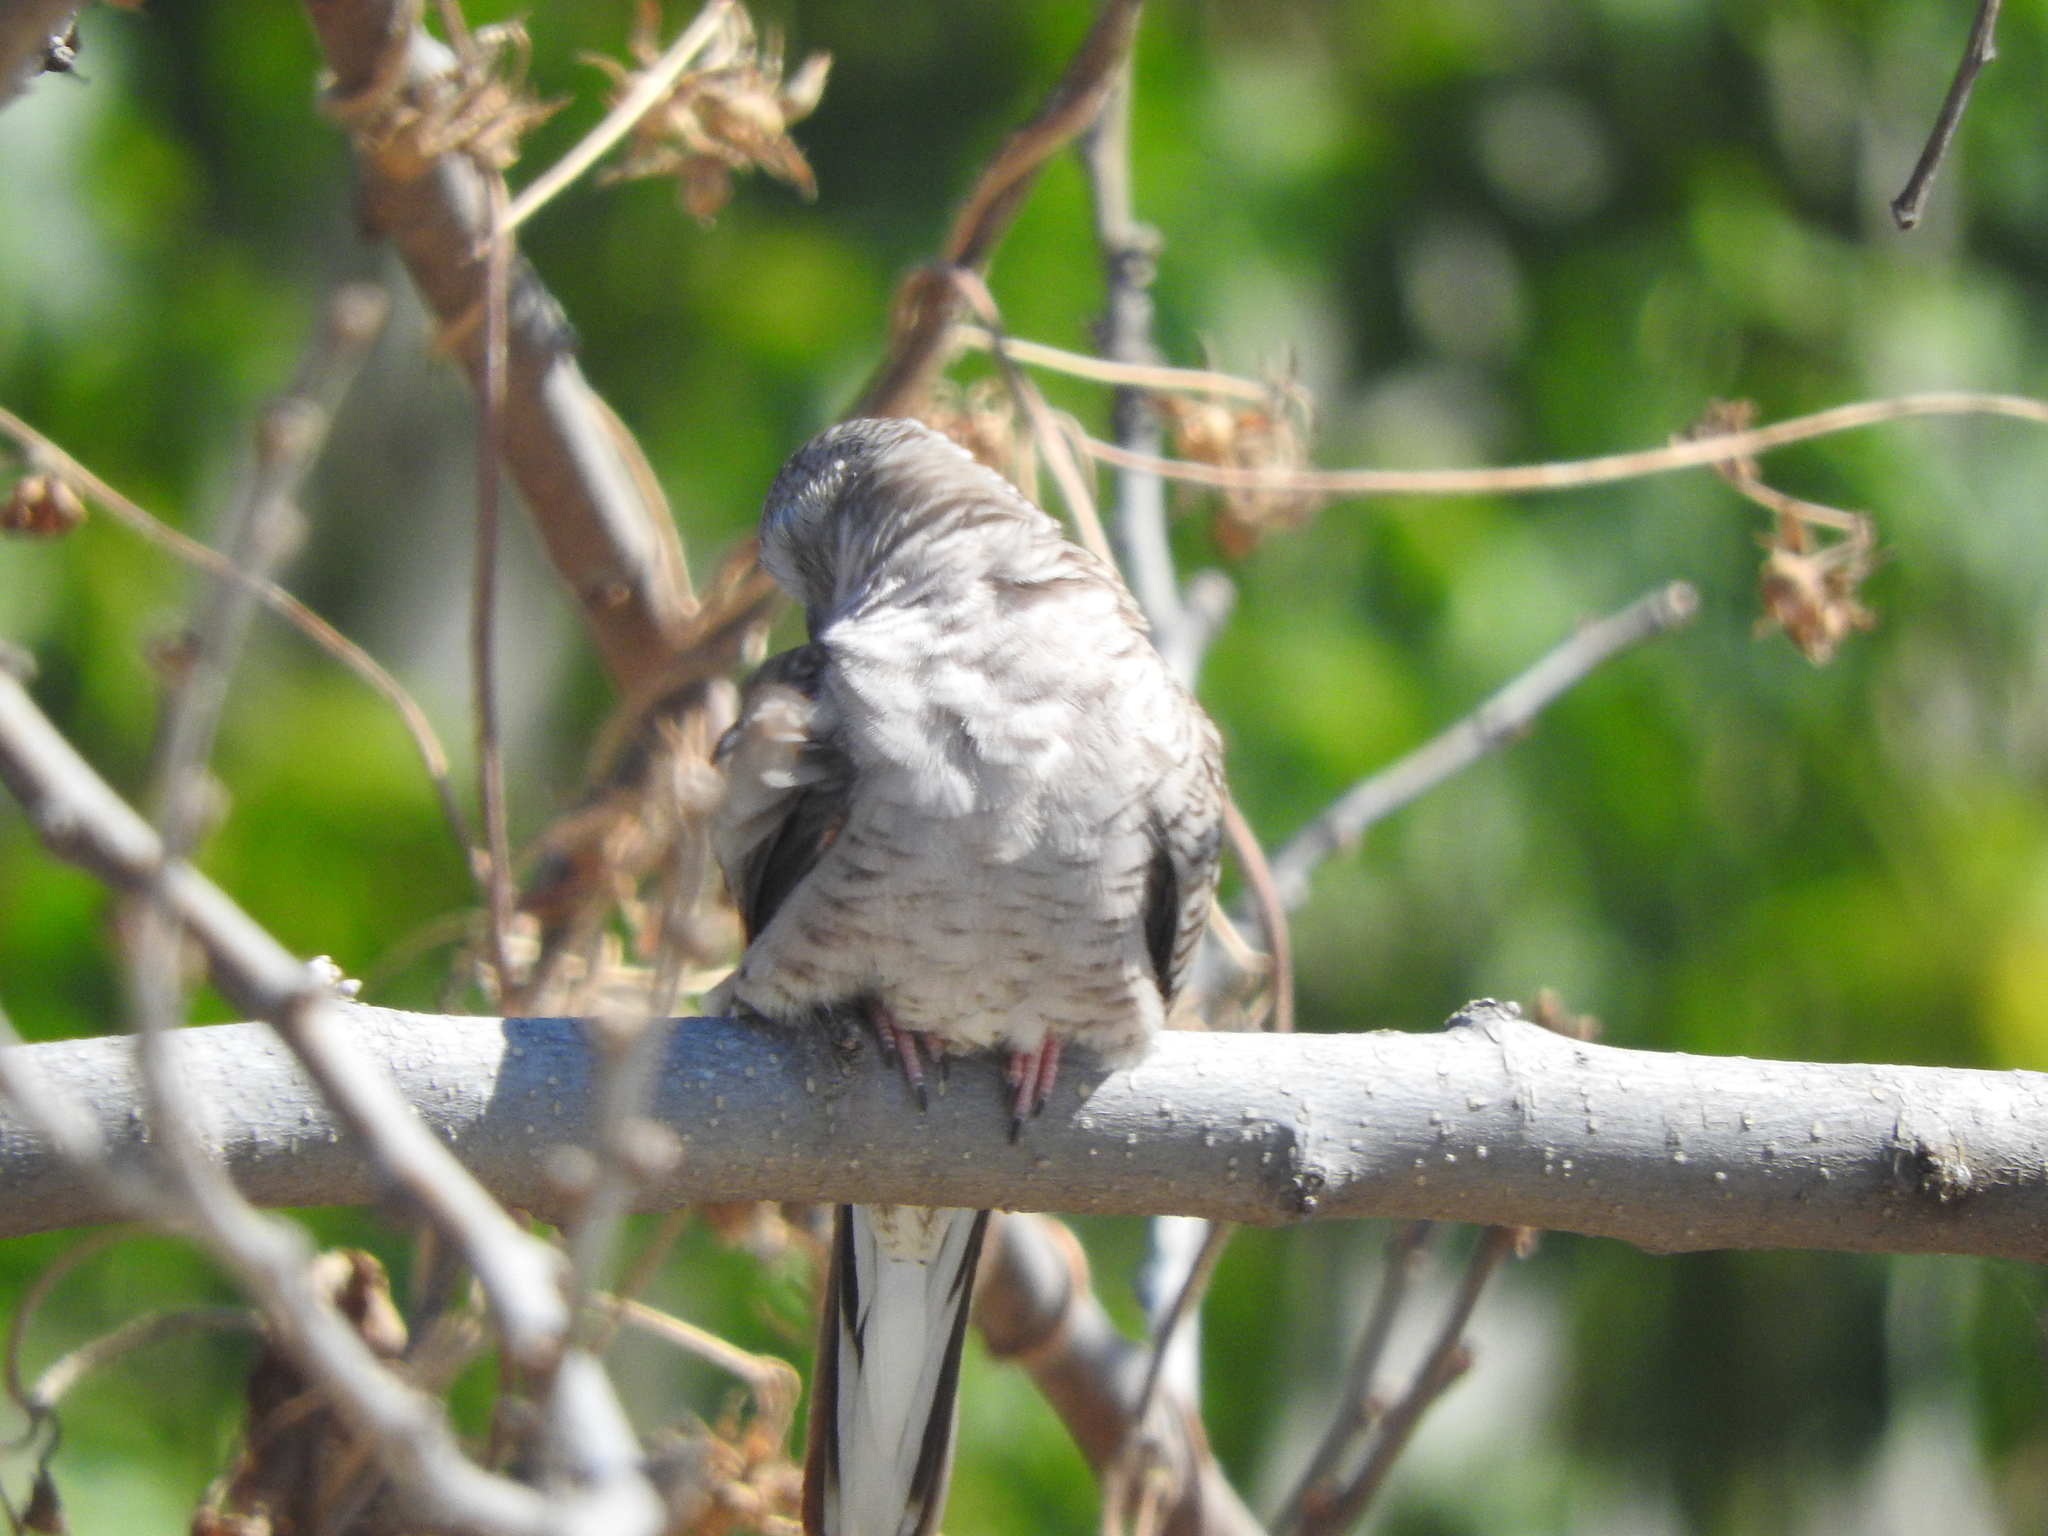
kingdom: Animalia
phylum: Chordata
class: Aves
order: Columbiformes
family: Columbidae
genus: Columbina
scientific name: Columbina inca
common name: Inca dove
